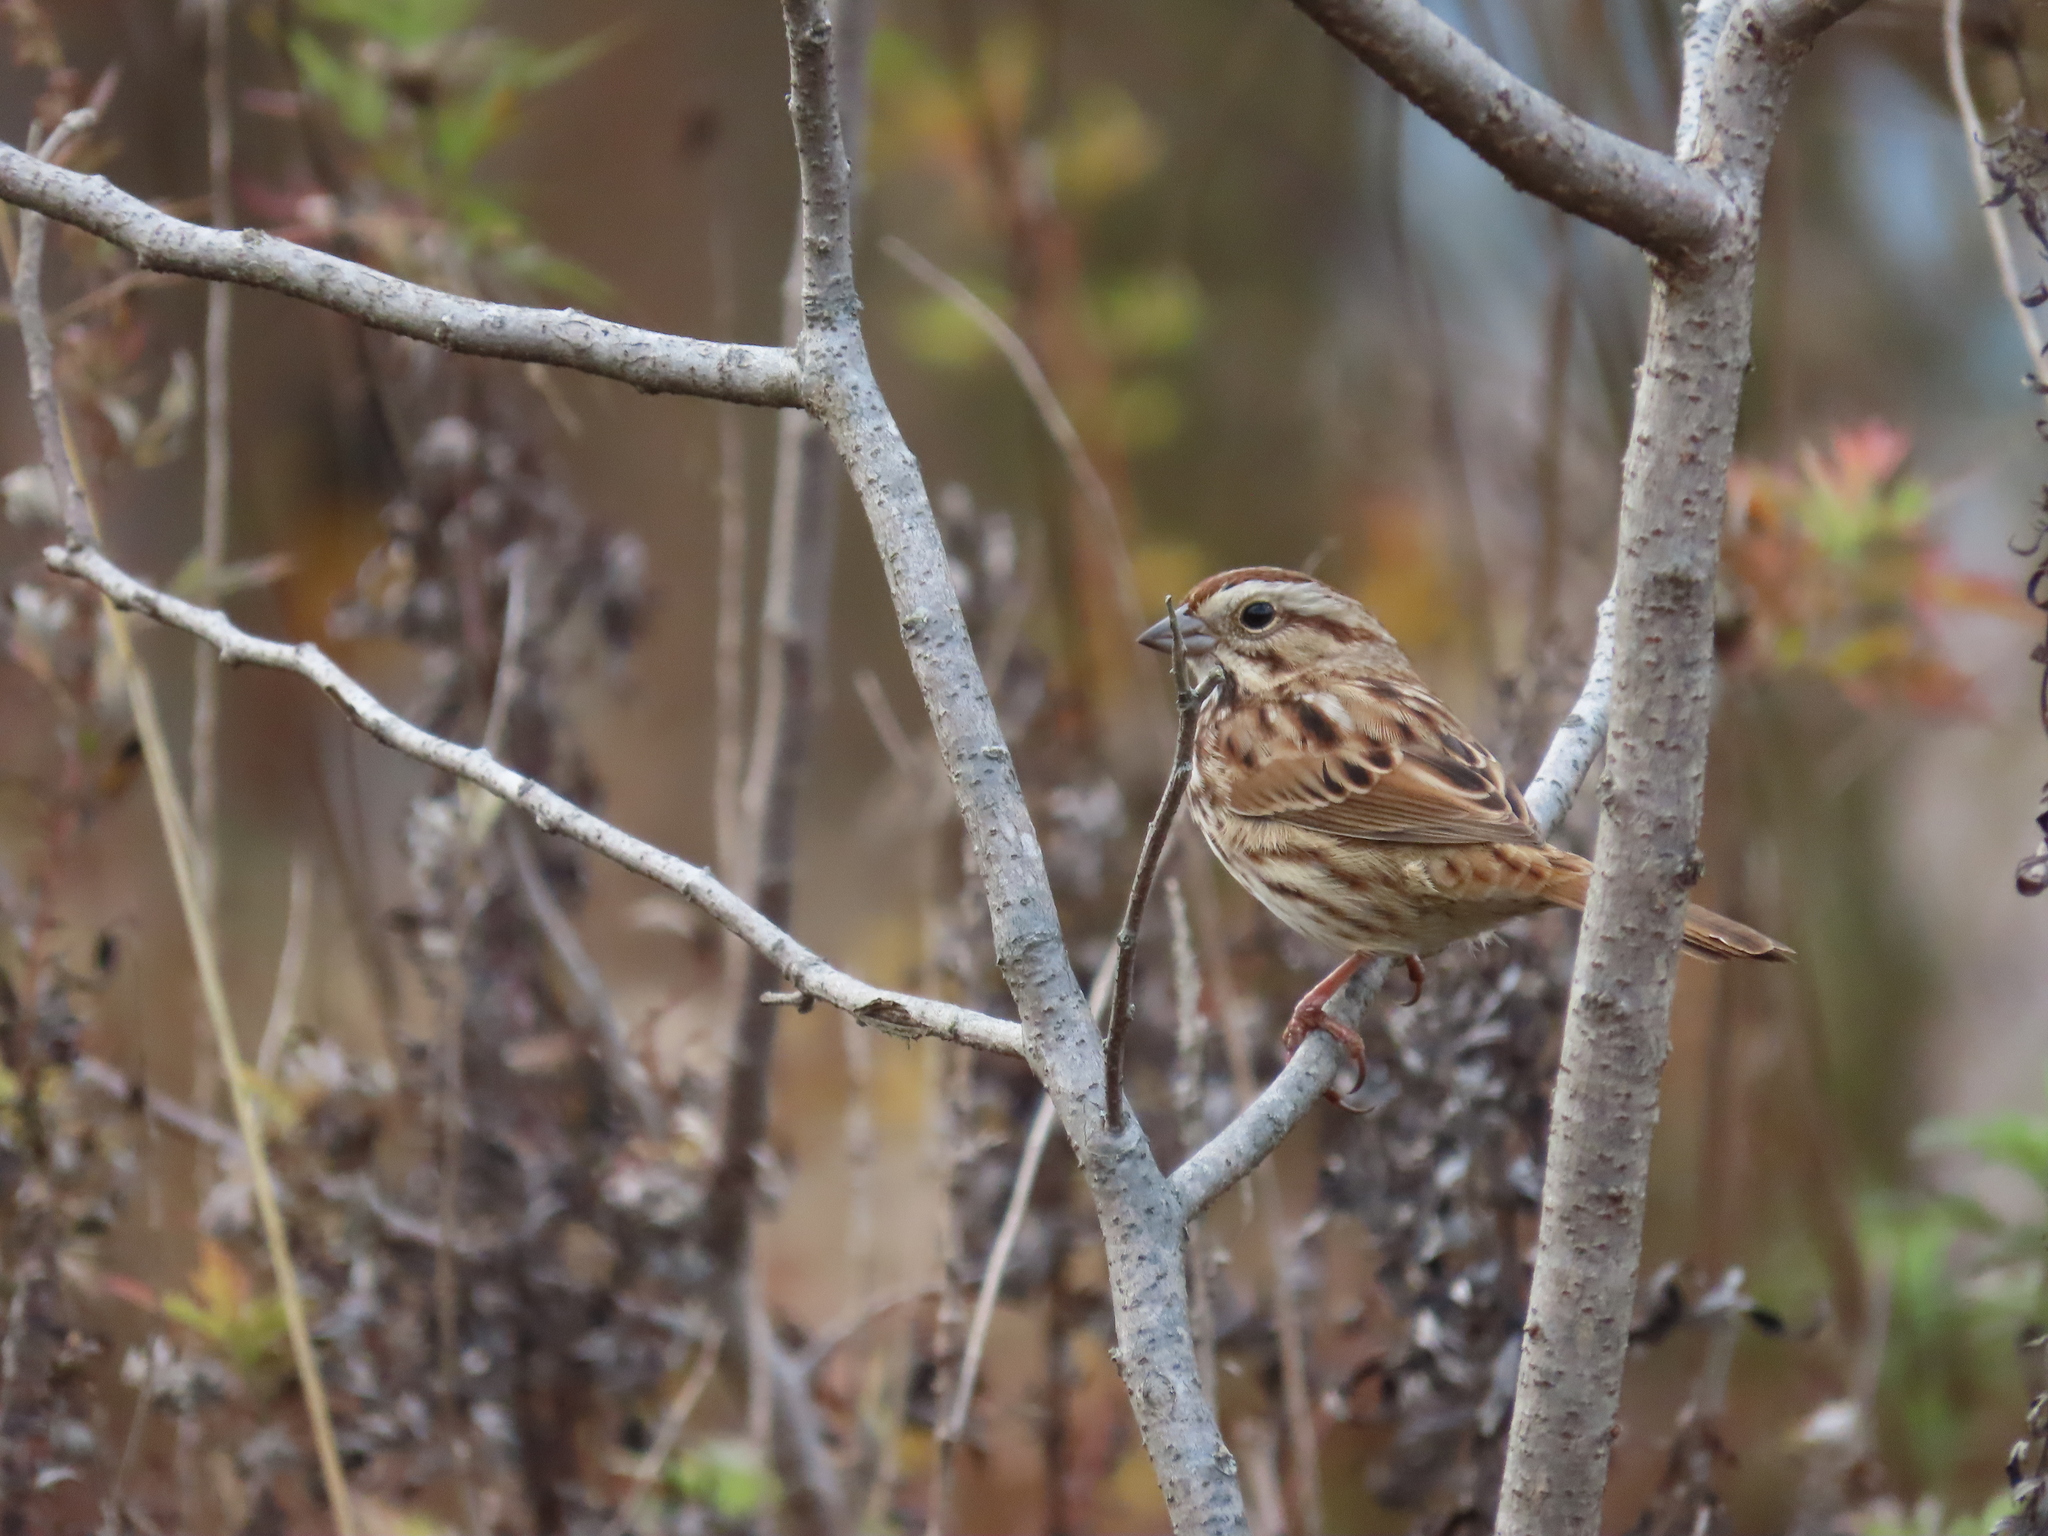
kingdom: Animalia
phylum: Chordata
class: Aves
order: Passeriformes
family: Passerellidae
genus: Melospiza
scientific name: Melospiza melodia
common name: Song sparrow
